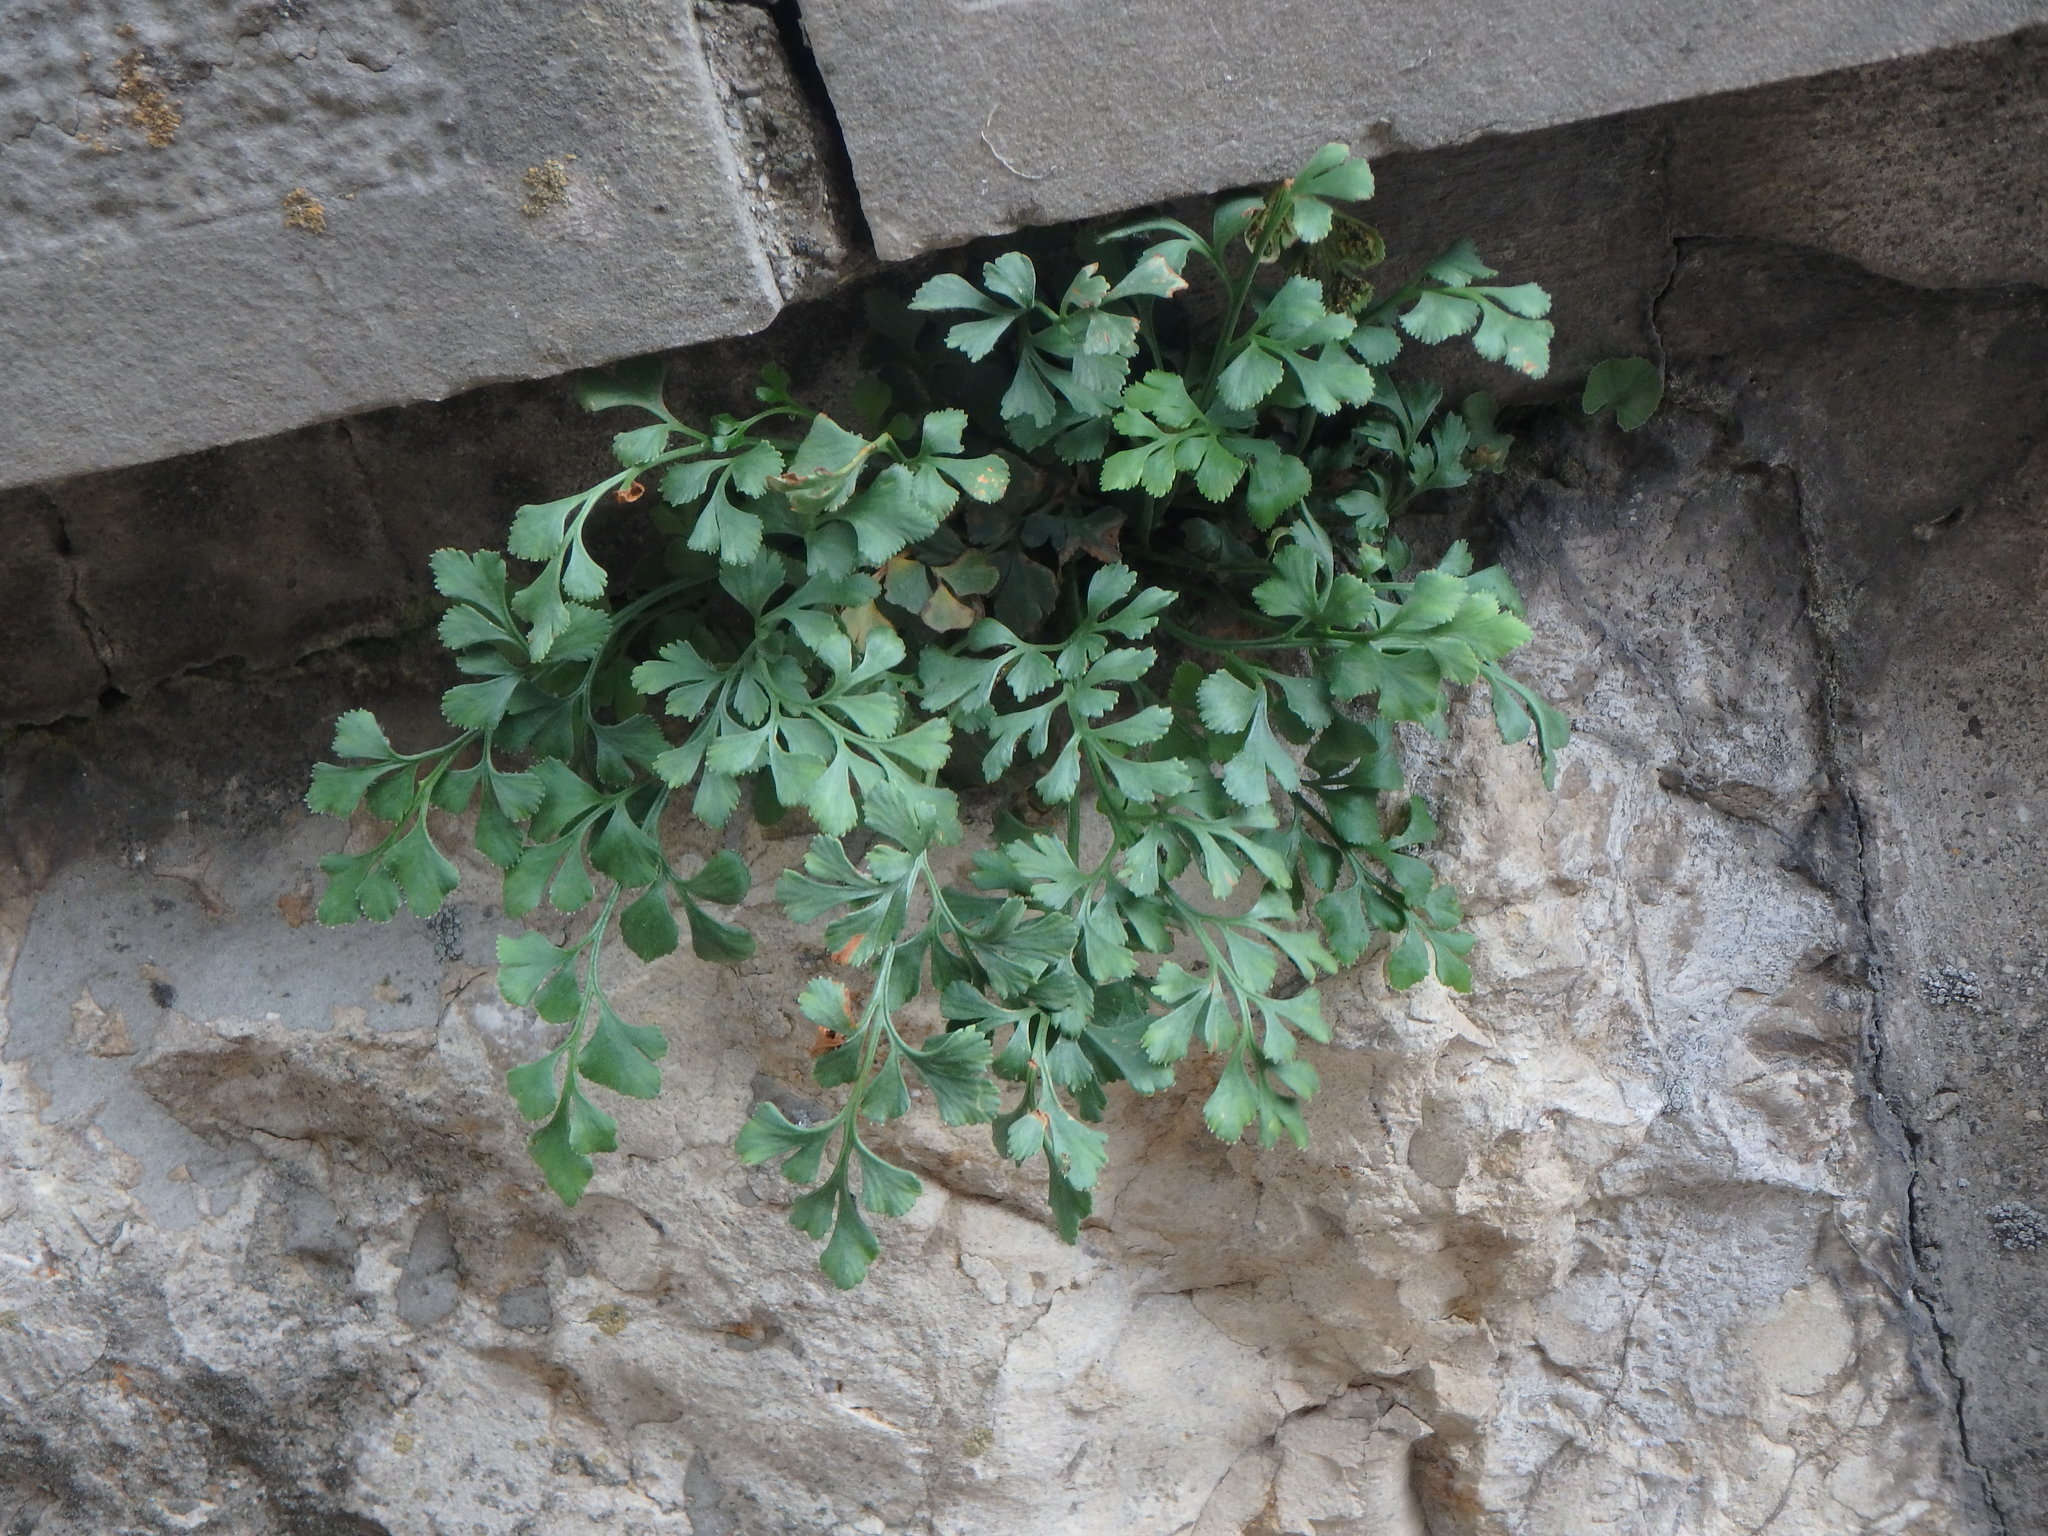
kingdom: Plantae
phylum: Tracheophyta
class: Polypodiopsida
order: Polypodiales
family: Aspleniaceae
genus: Asplenium
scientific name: Asplenium ruta-muraria
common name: Wall-rue
